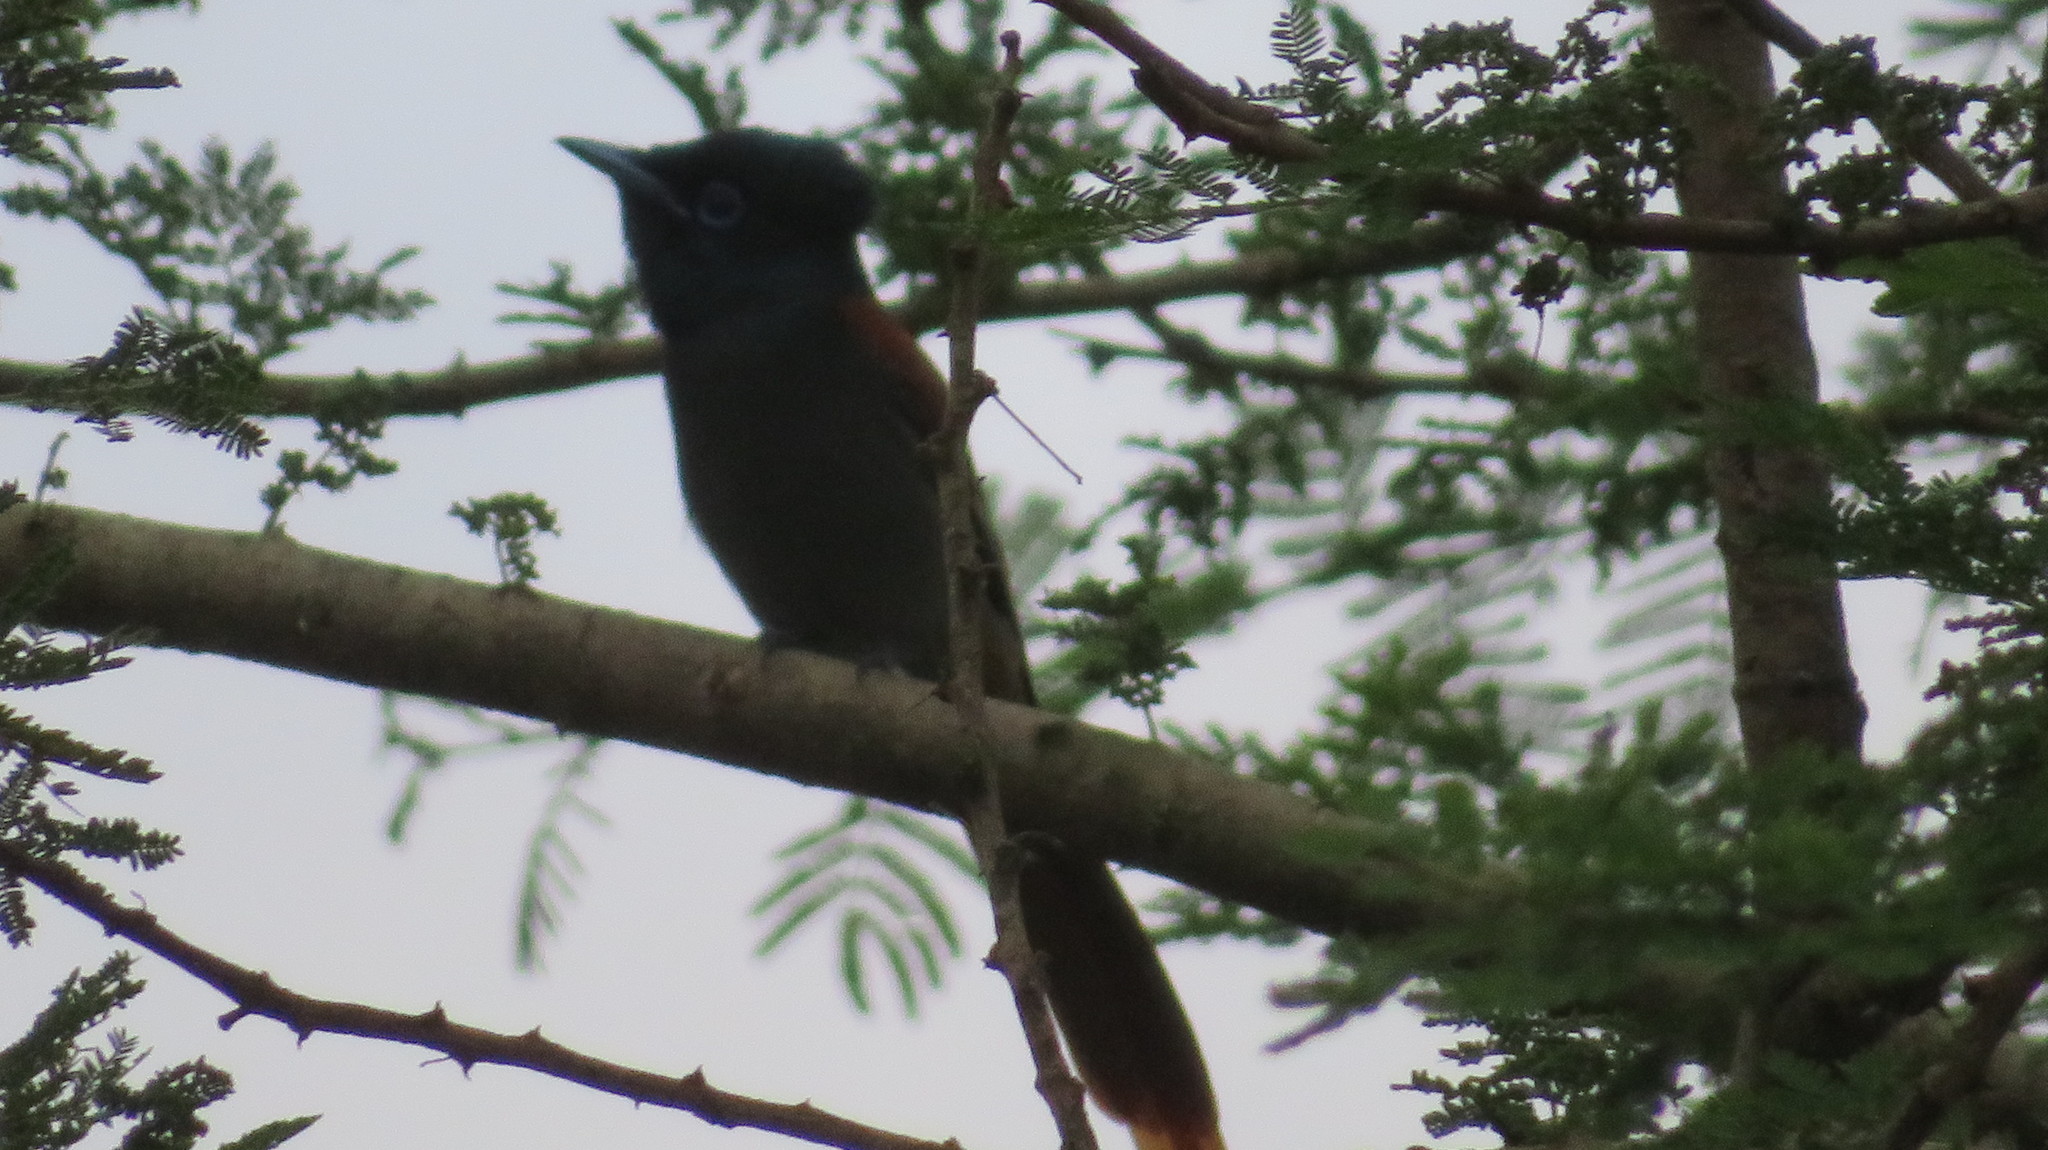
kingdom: Animalia
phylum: Chordata
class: Aves
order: Passeriformes
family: Monarchidae
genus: Terpsiphone
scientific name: Terpsiphone viridis
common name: African paradise flycatcher
